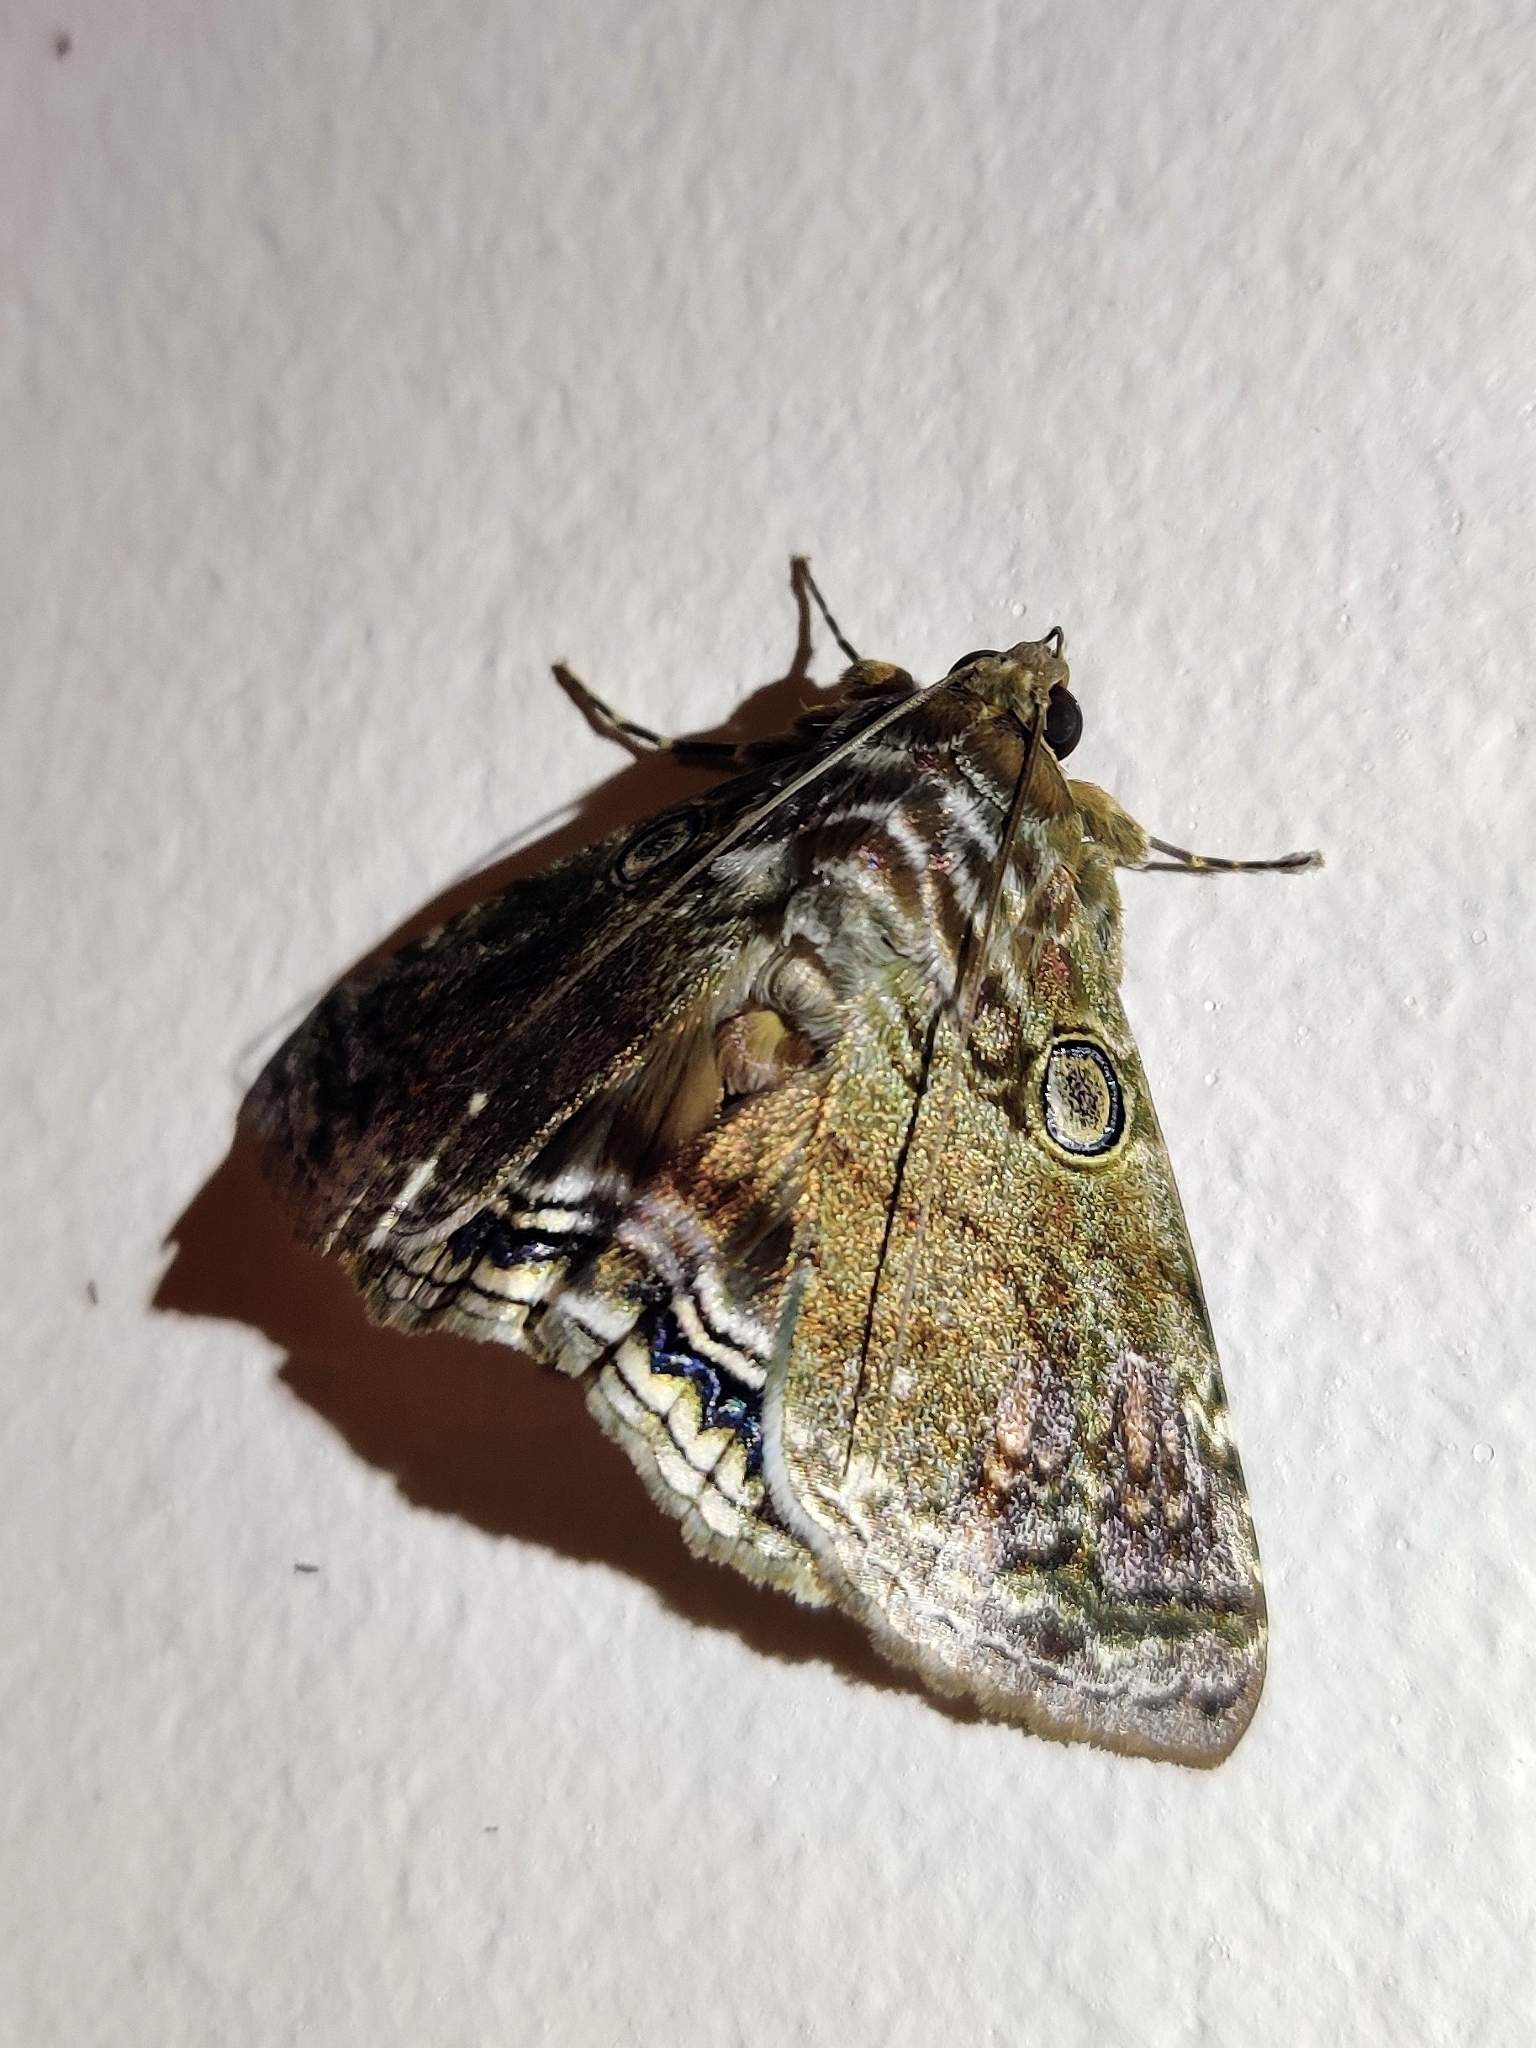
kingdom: Animalia
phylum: Arthropoda
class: Insecta
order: Lepidoptera
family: Erebidae
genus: Cyclodes
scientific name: Cyclodes omma
